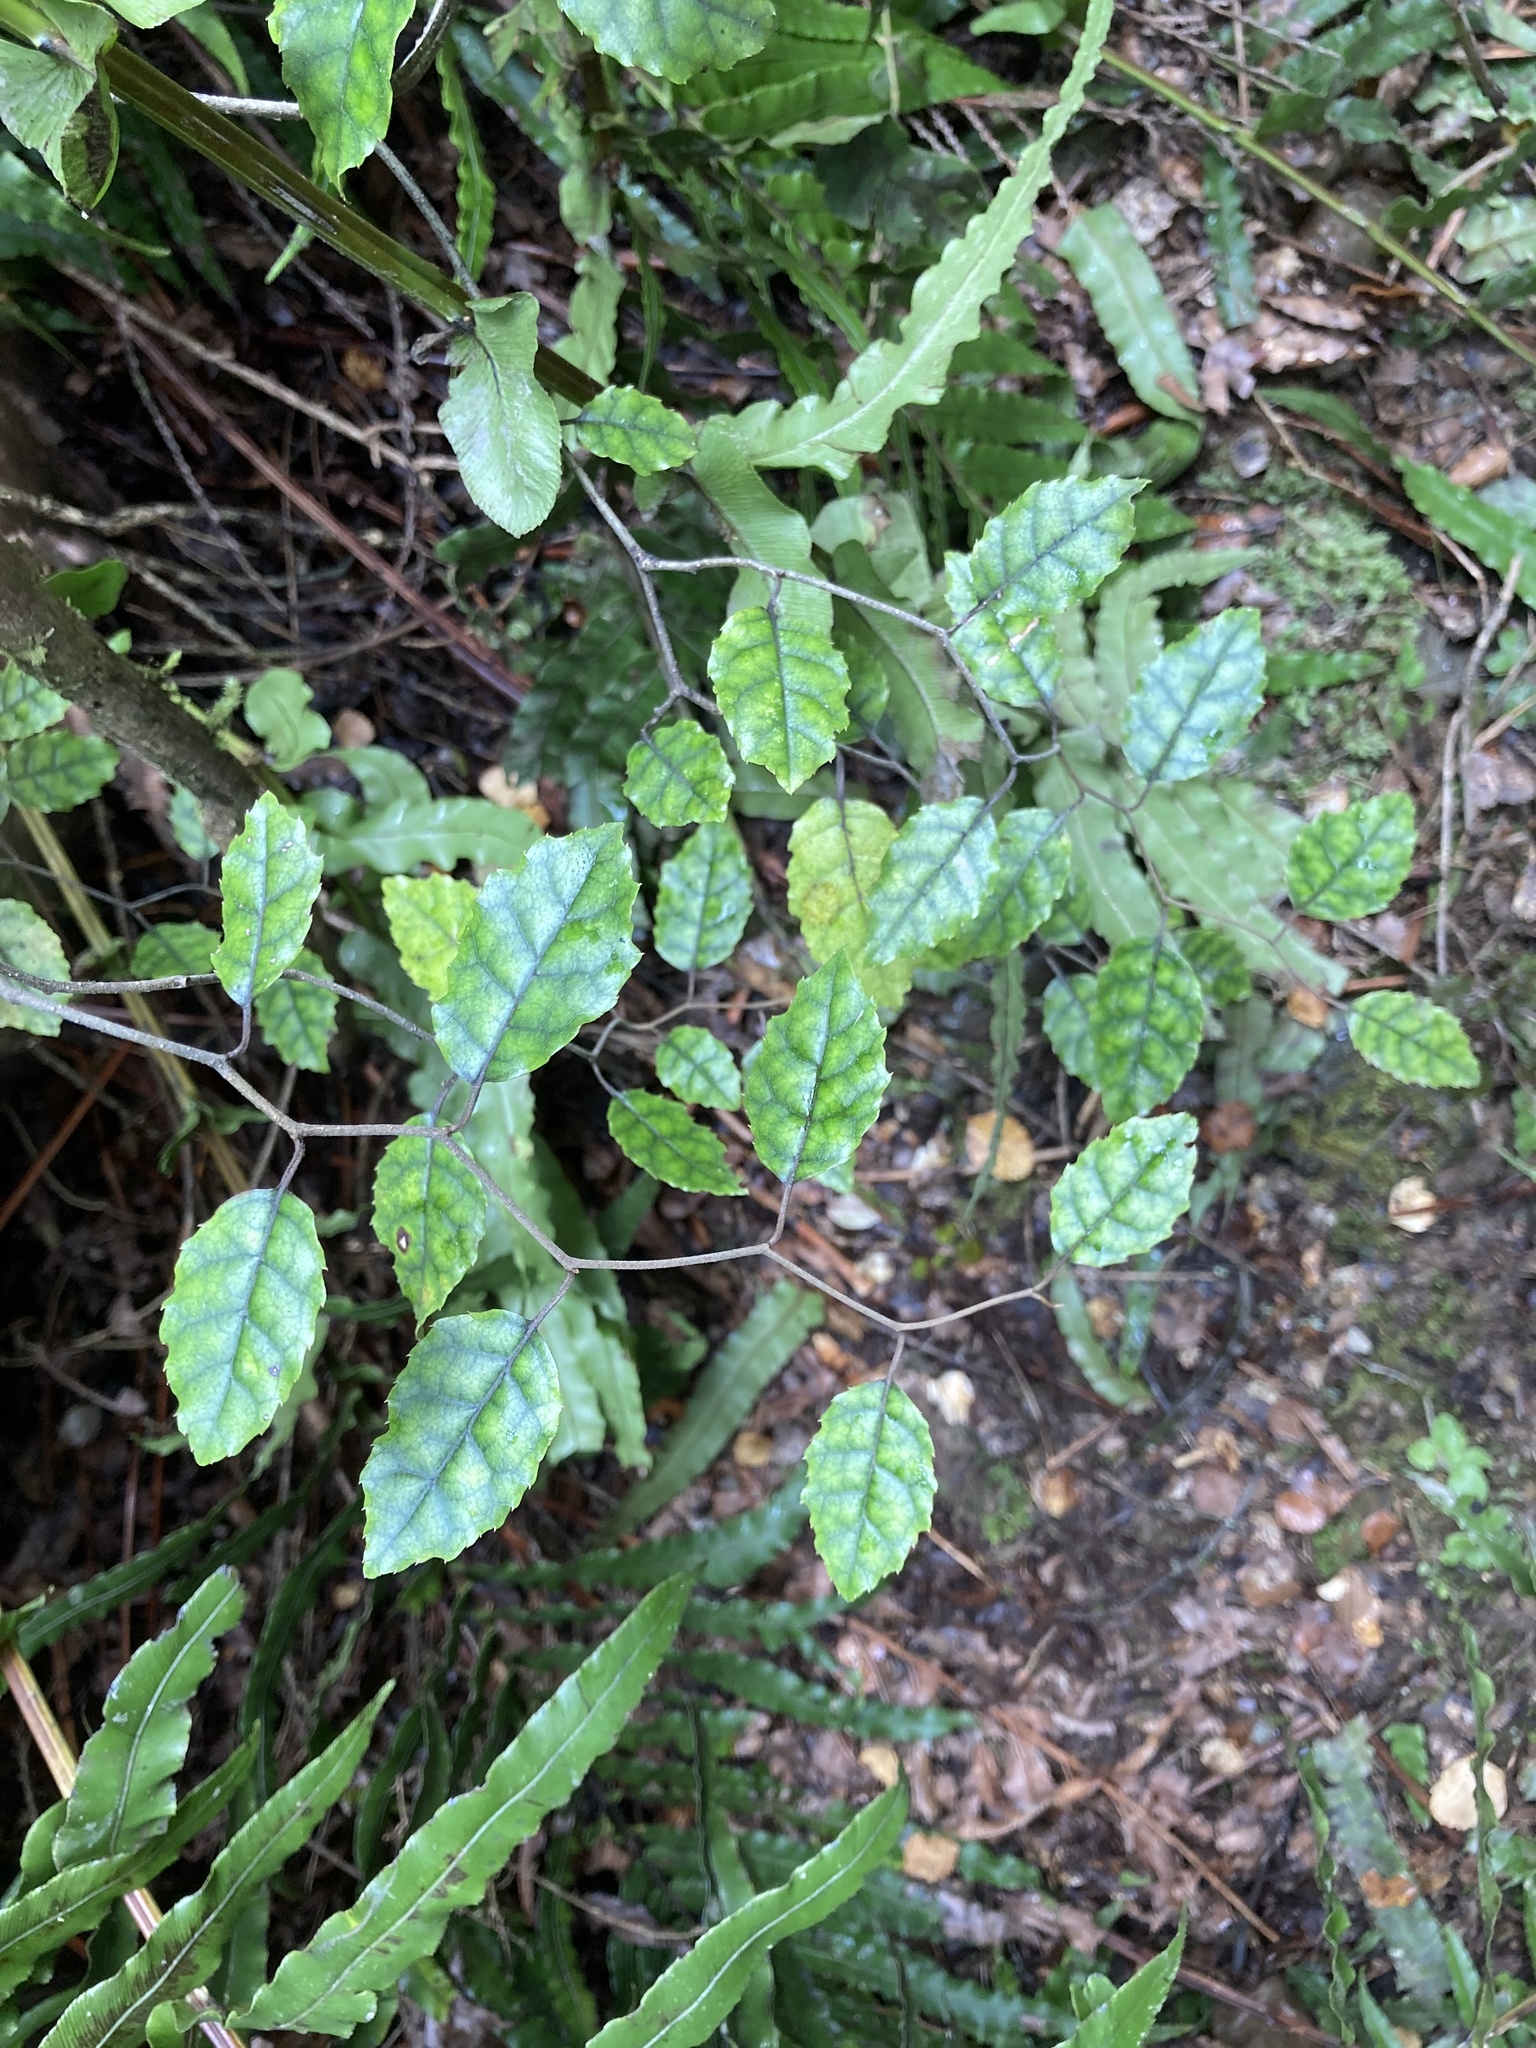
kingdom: Plantae
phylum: Tracheophyta
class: Magnoliopsida
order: Asterales
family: Rousseaceae
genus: Carpodetus
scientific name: Carpodetus serratus
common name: White mapau
